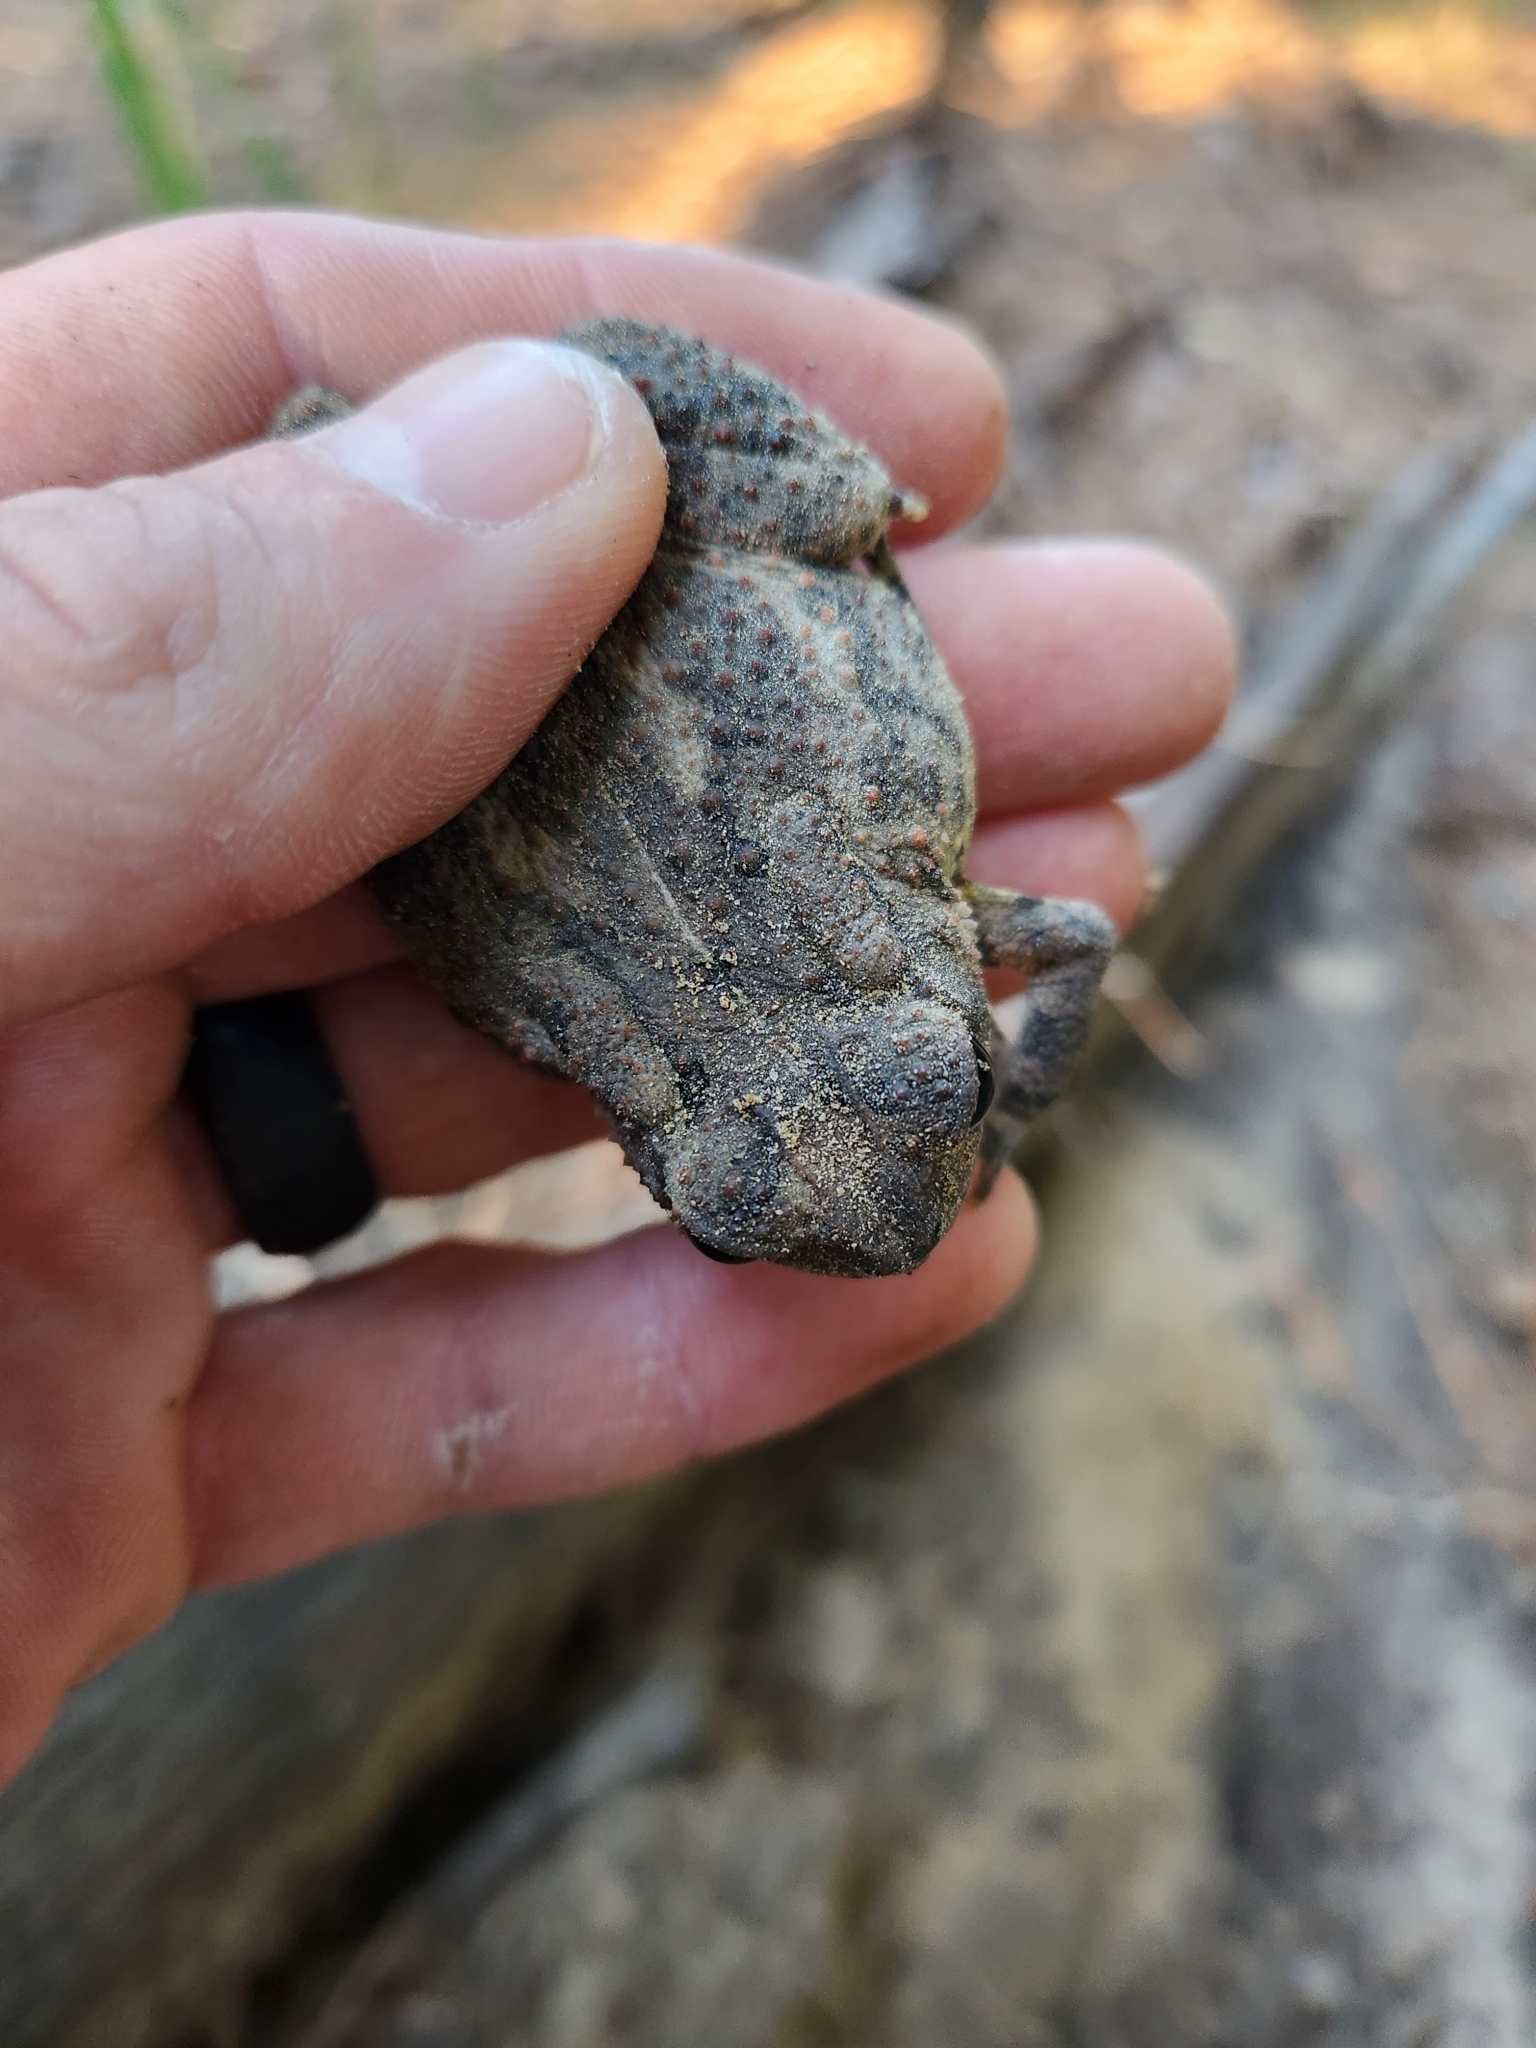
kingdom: Animalia
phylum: Chordata
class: Amphibia
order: Anura
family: Bufonidae
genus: Anaxyrus
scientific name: Anaxyrus fowleri
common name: Fowler's toad
